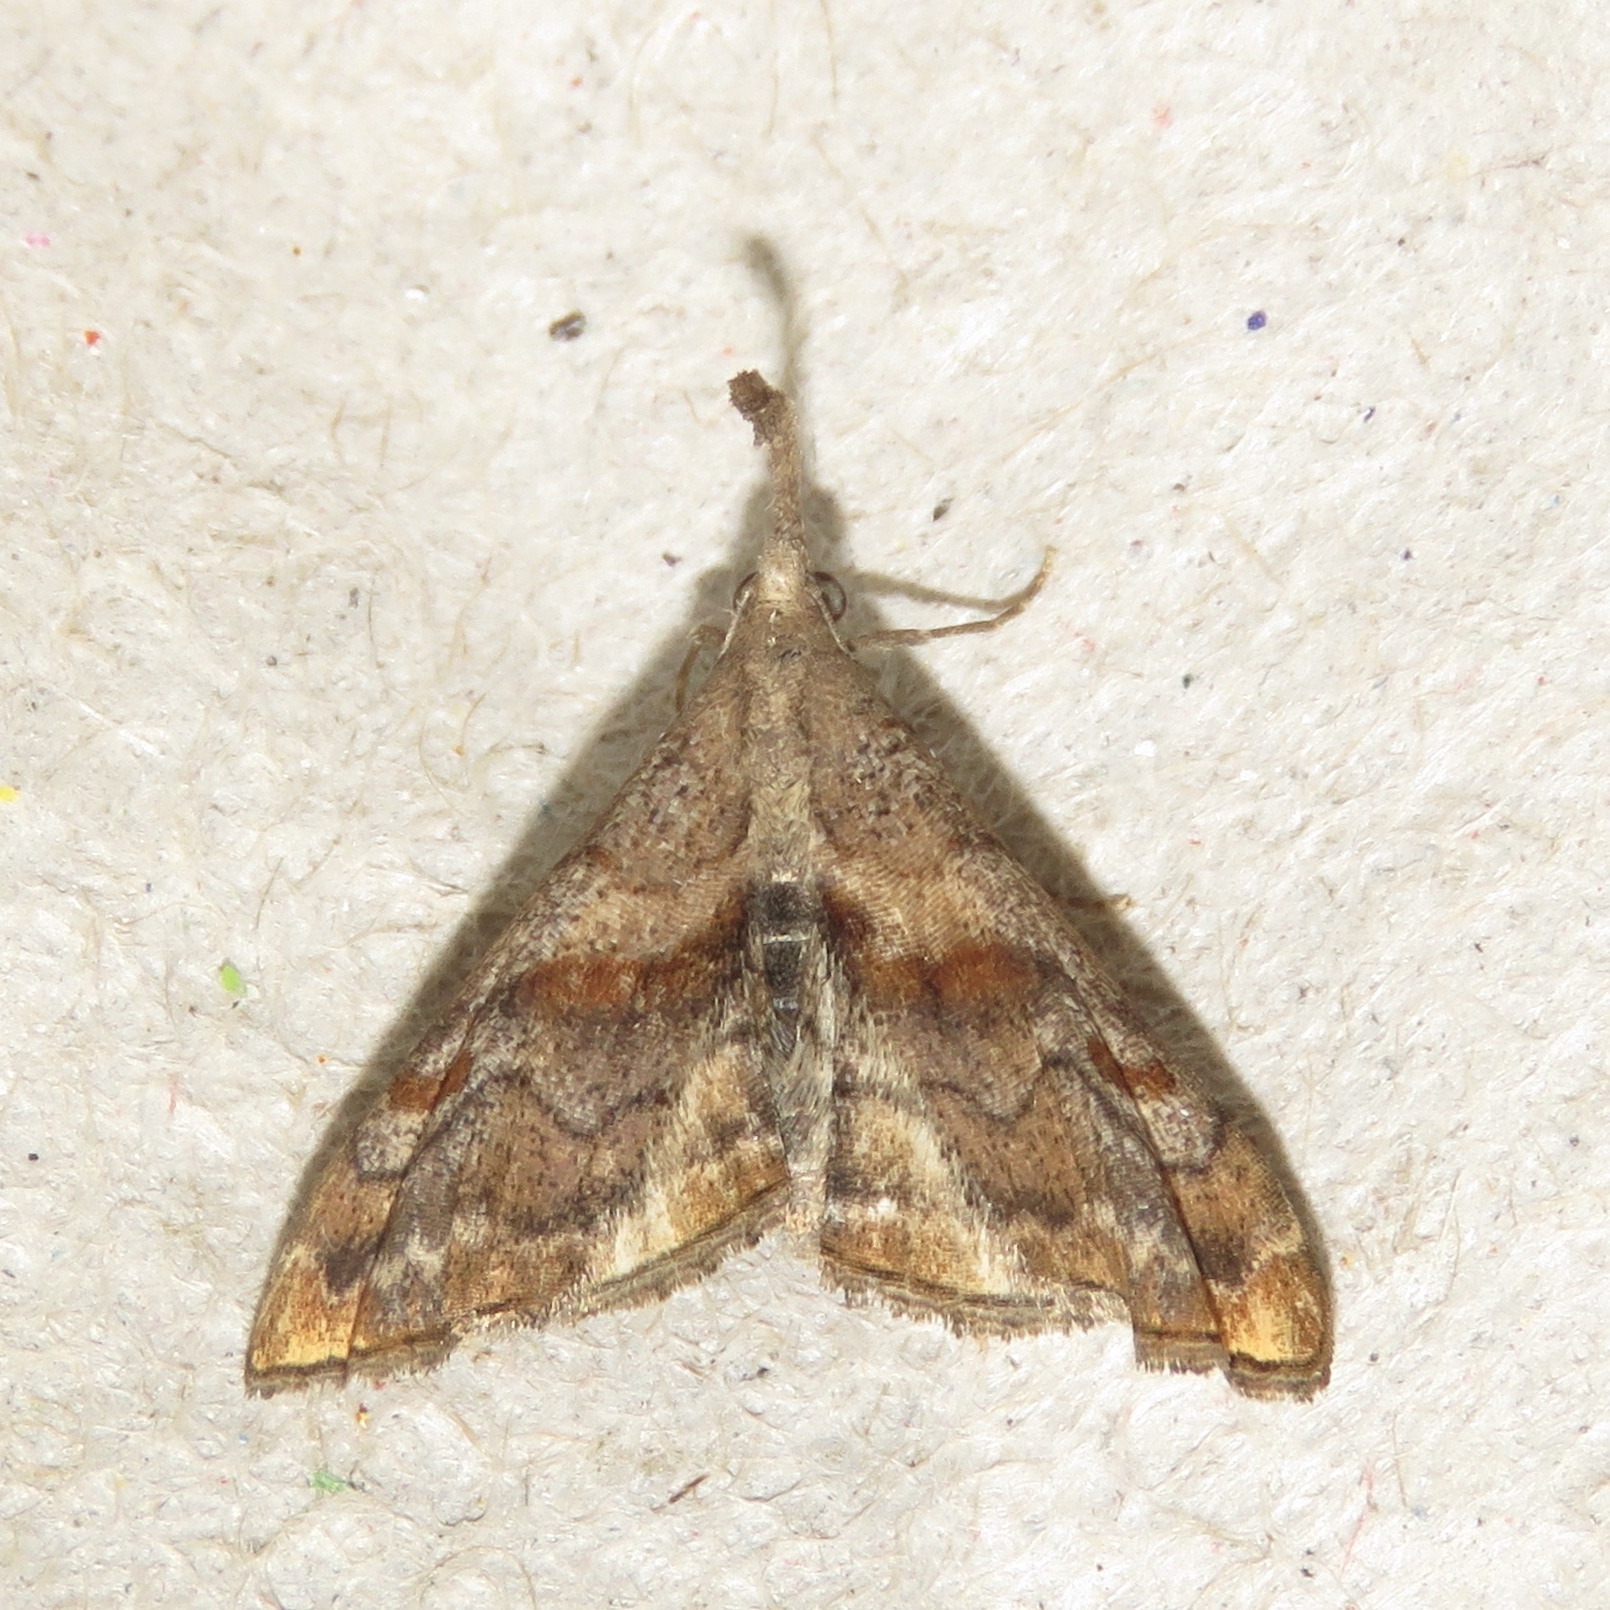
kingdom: Animalia
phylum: Arthropoda
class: Insecta
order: Lepidoptera
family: Erebidae
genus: Palthis
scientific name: Palthis angulalis
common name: Dark-spotted palthis moth
